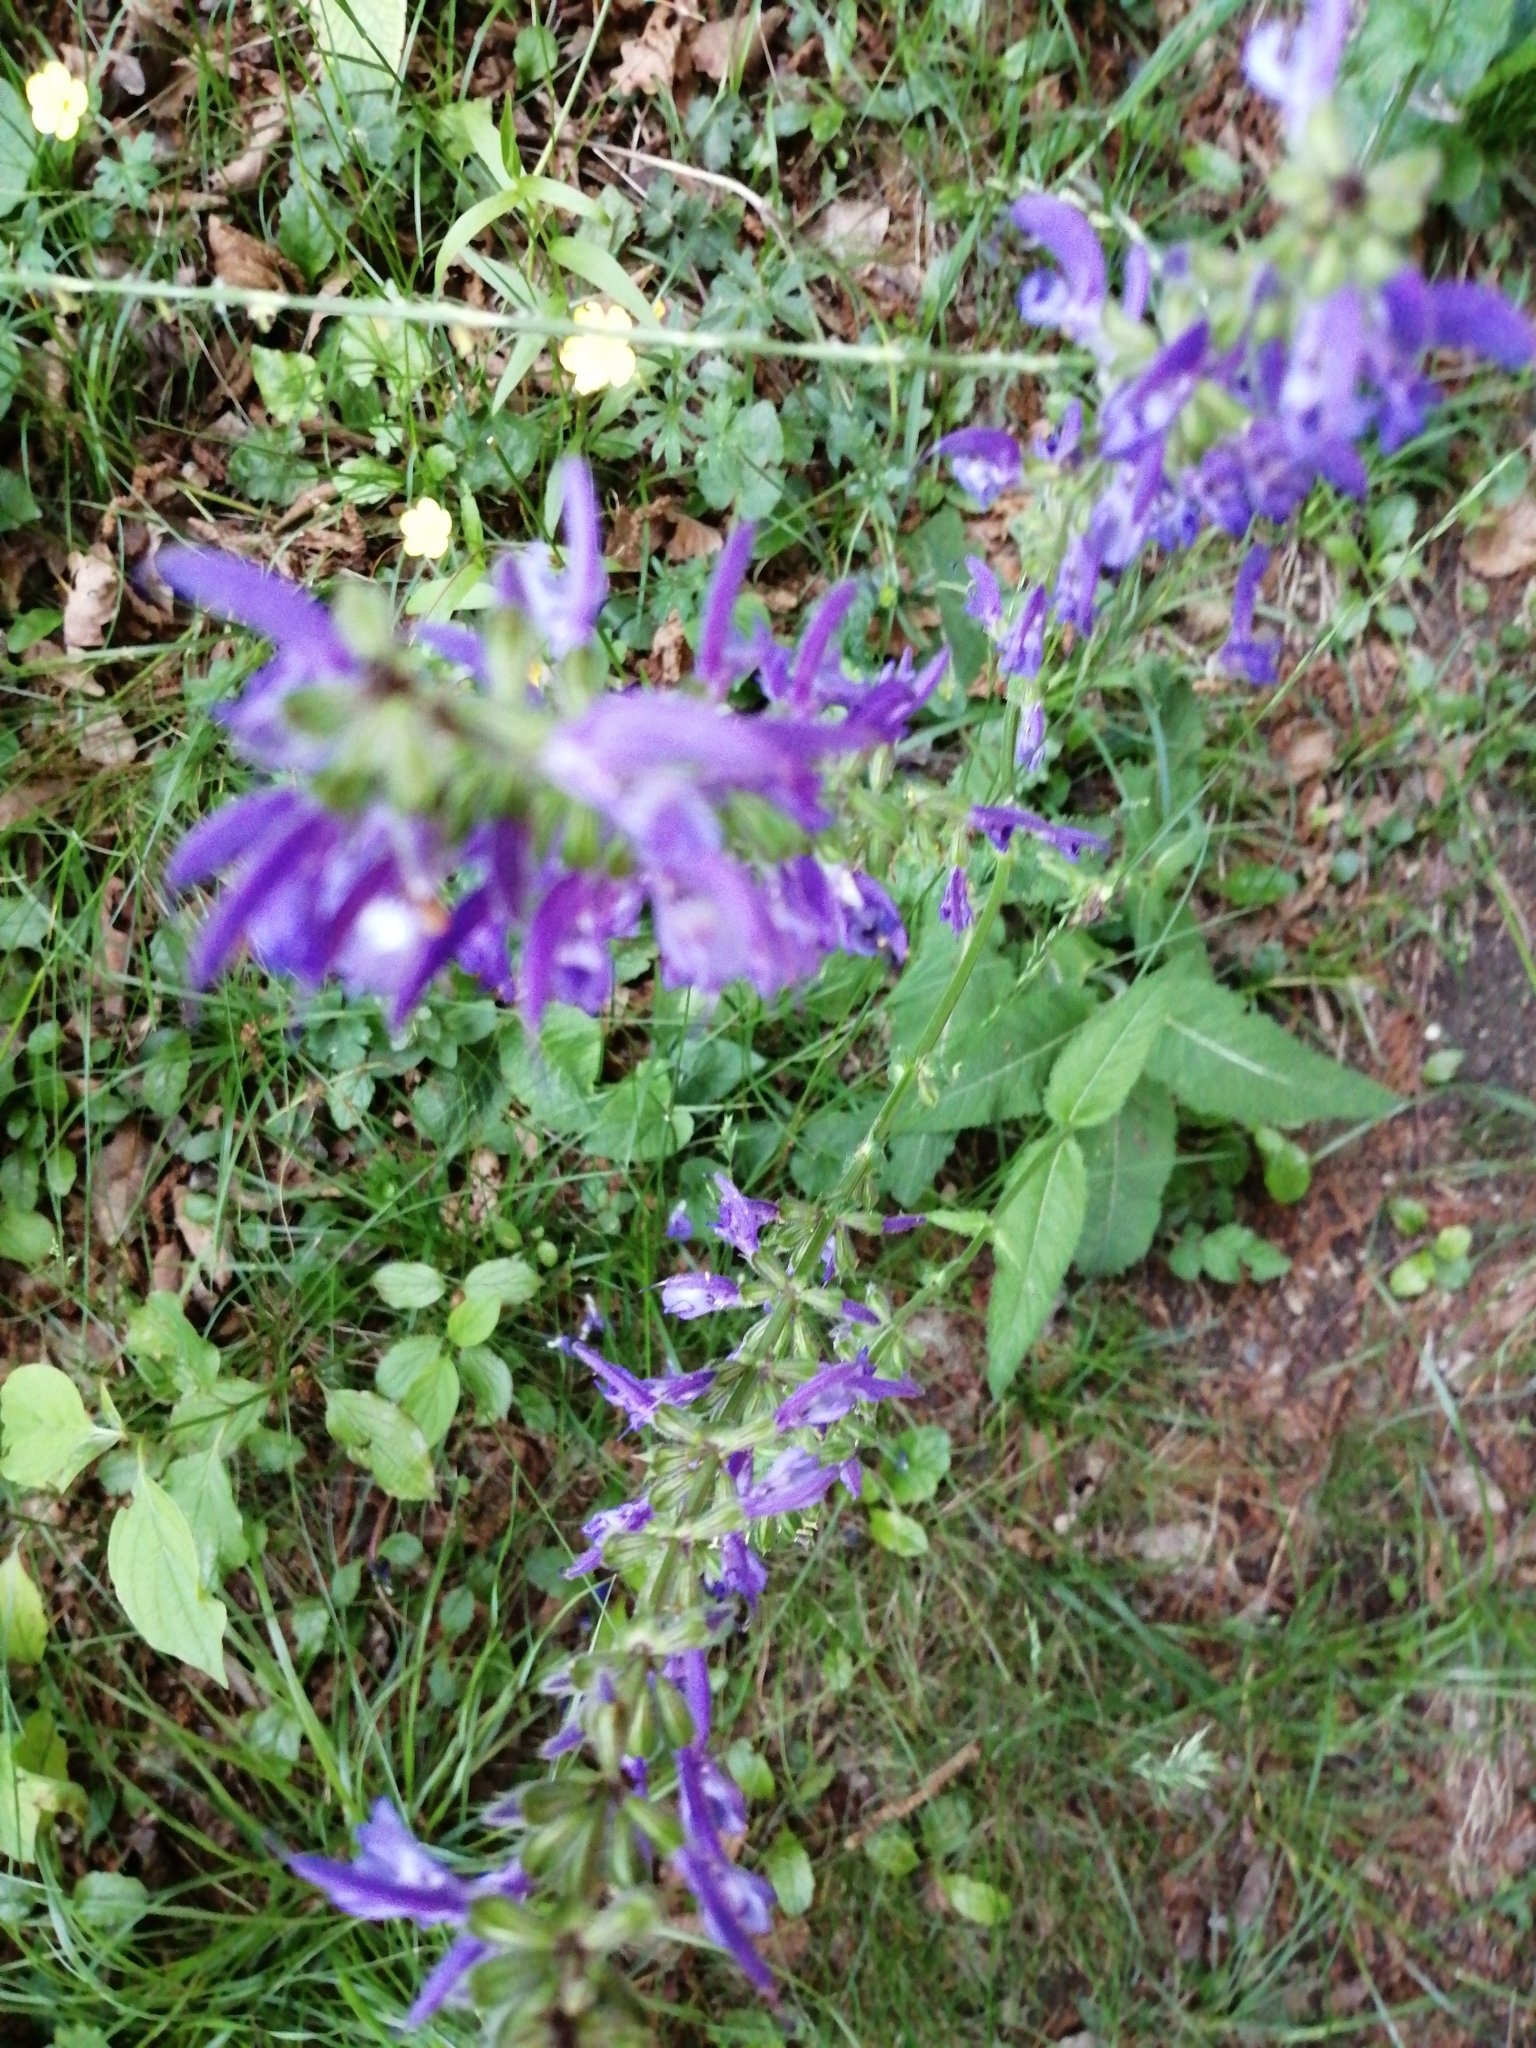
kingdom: Plantae
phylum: Tracheophyta
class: Magnoliopsida
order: Lamiales
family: Lamiaceae
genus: Salvia
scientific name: Salvia pratensis
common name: Meadow sage
